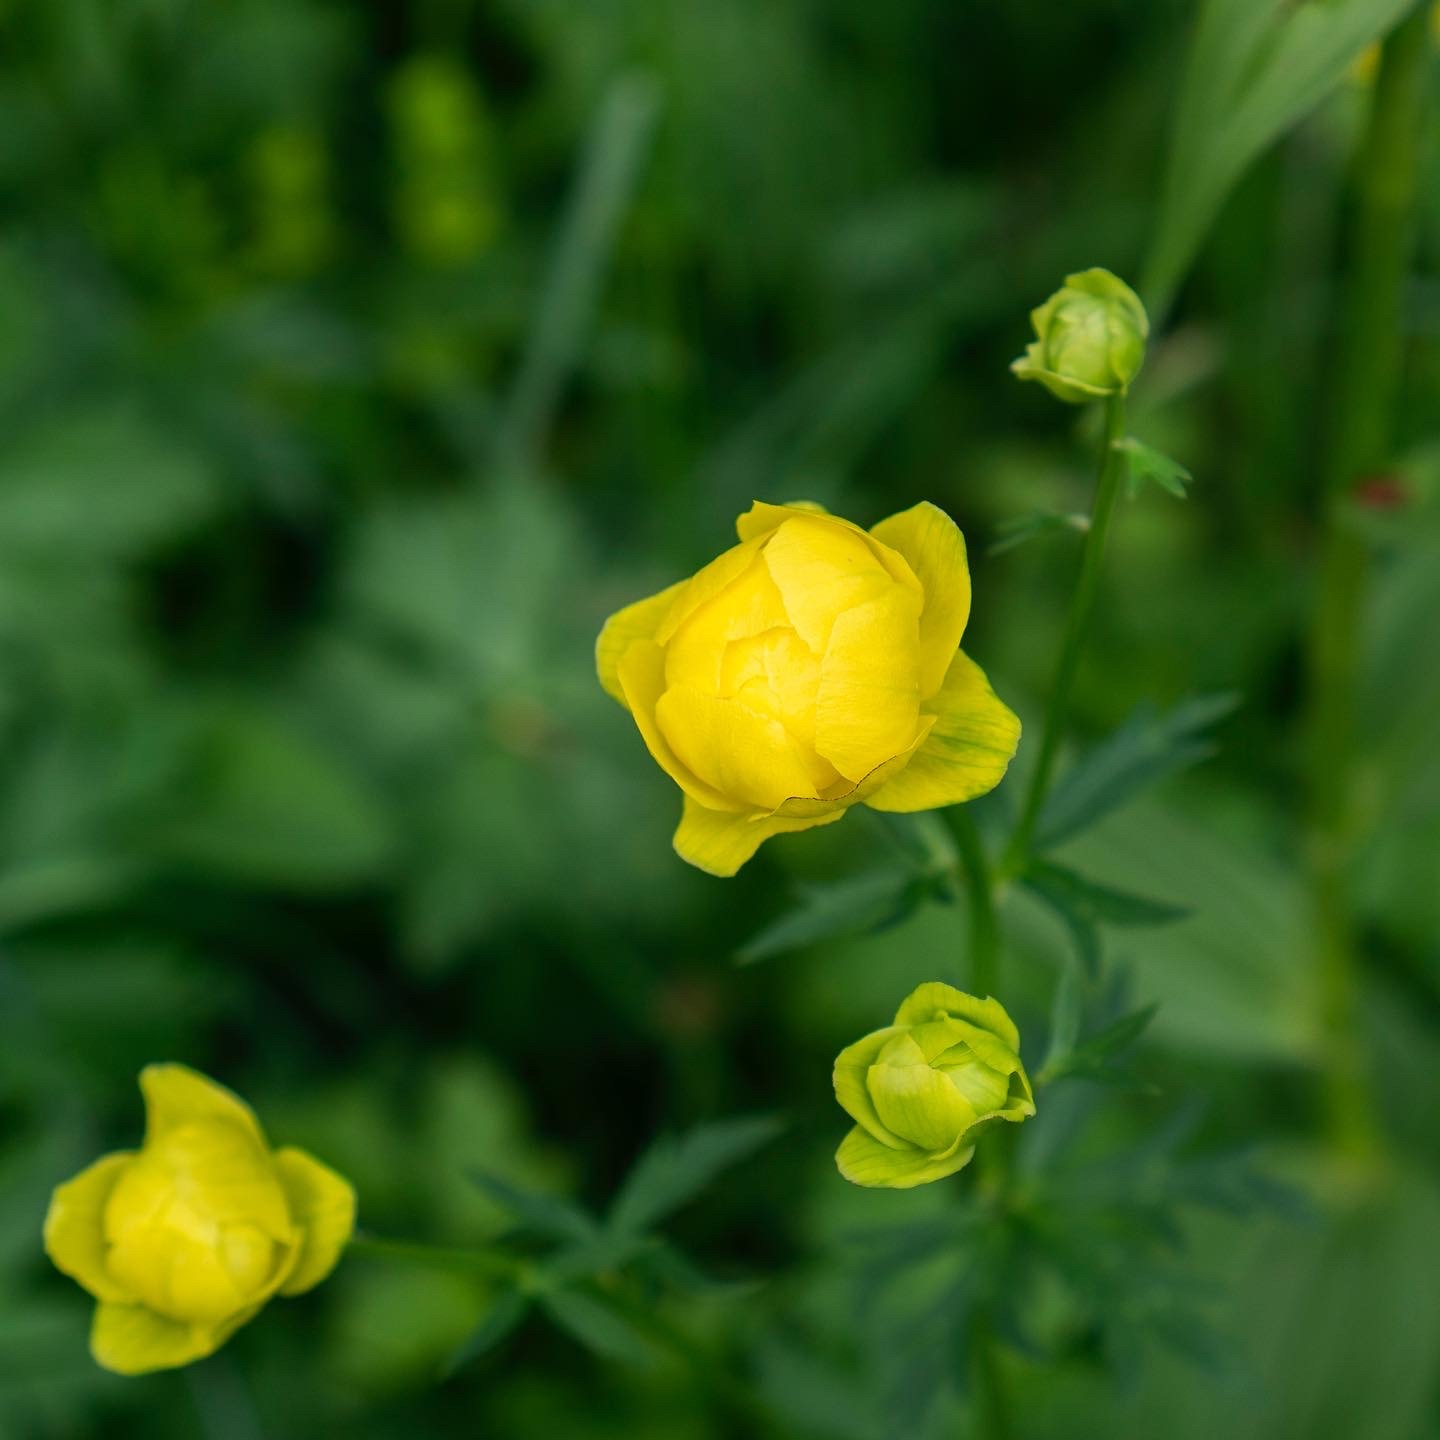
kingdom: Plantae
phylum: Tracheophyta
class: Magnoliopsida
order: Ranunculales
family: Ranunculaceae
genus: Trollius
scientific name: Trollius europaeus
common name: European globeflower
